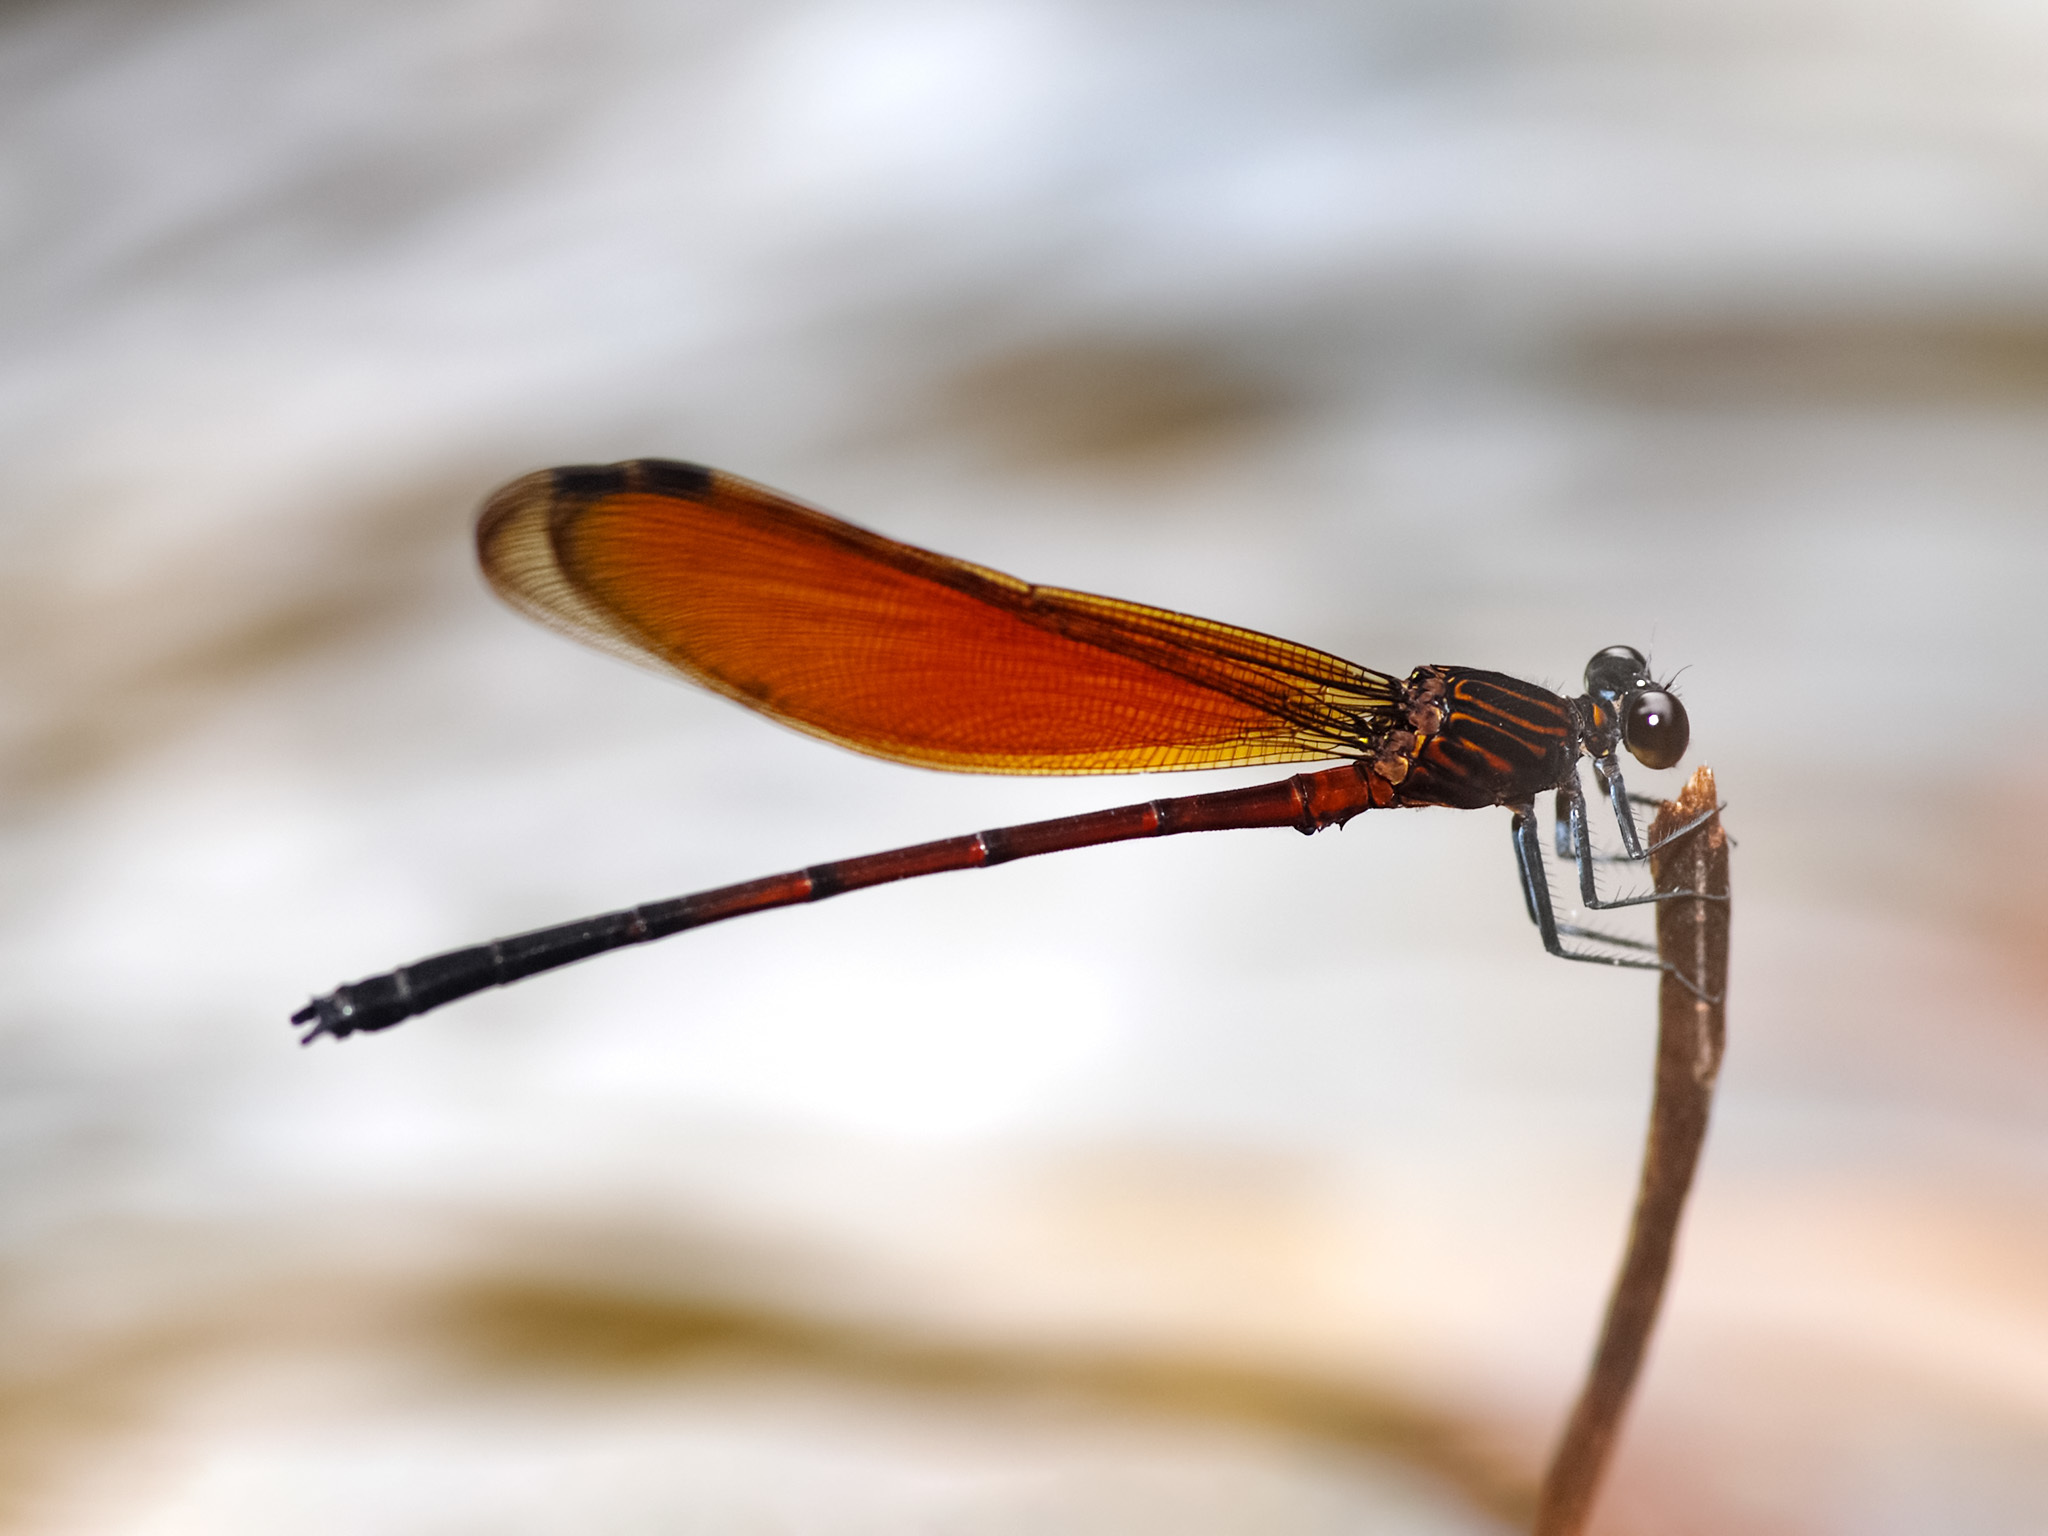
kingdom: Animalia
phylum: Arthropoda
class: Insecta
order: Odonata
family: Euphaeidae
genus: Euphaea
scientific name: Euphaea ochracea
